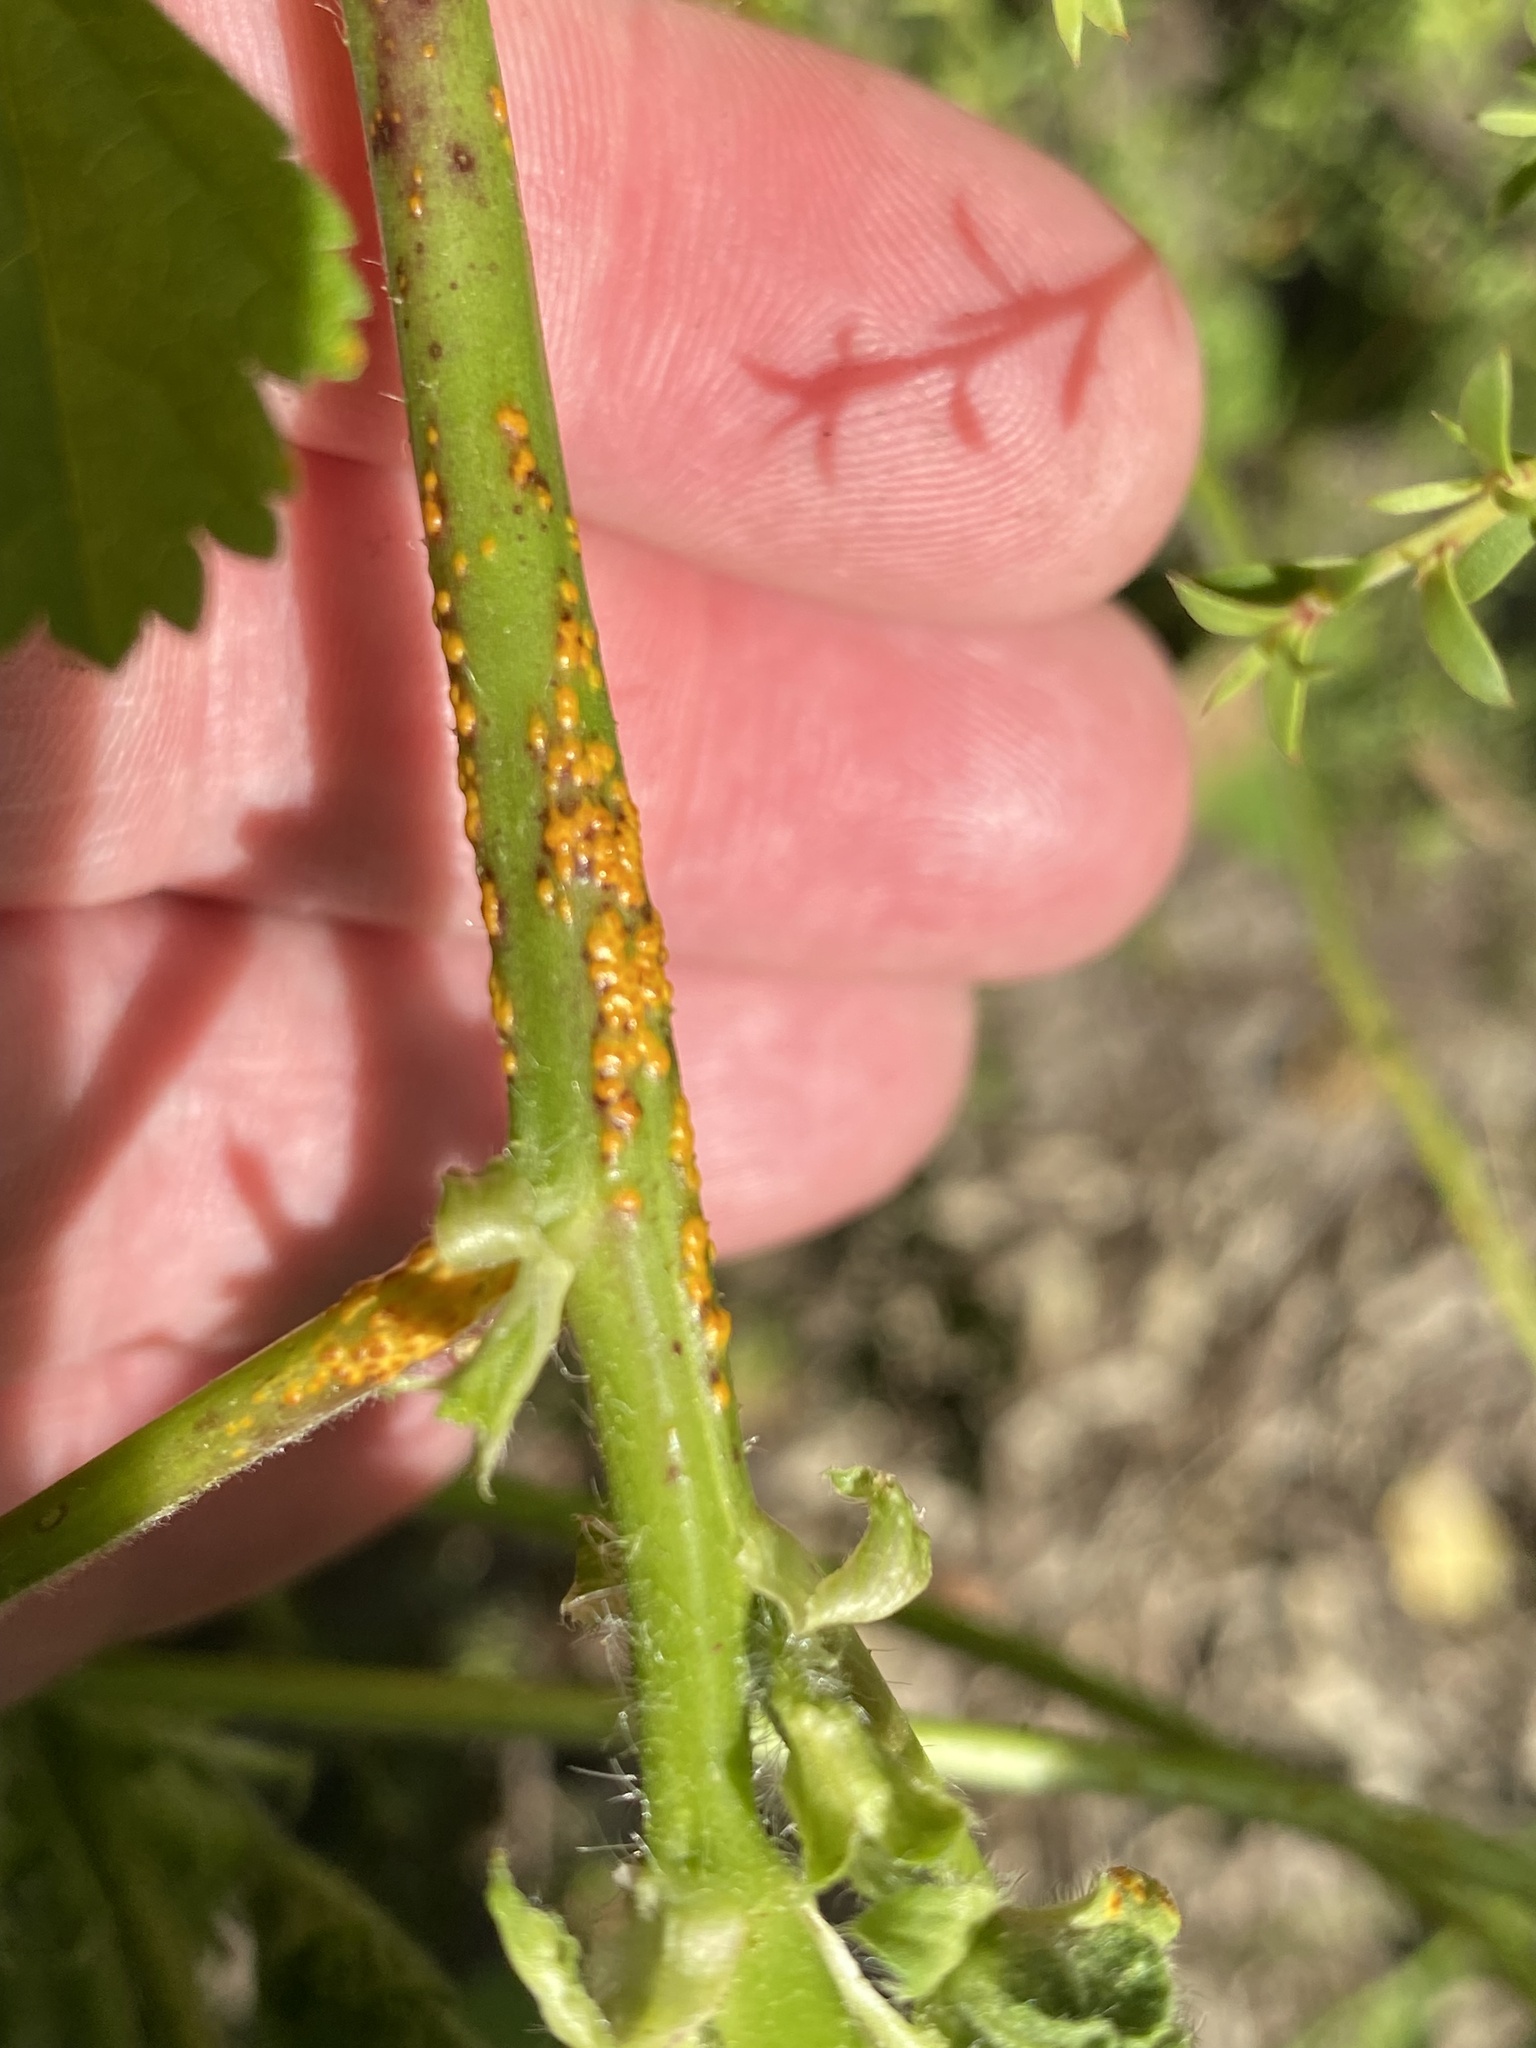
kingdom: Fungi
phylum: Basidiomycota
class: Pucciniomycetes
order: Pucciniales
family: Pucciniaceae
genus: Puccinia
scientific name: Puccinia malvacearum
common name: Hollyhock rust
